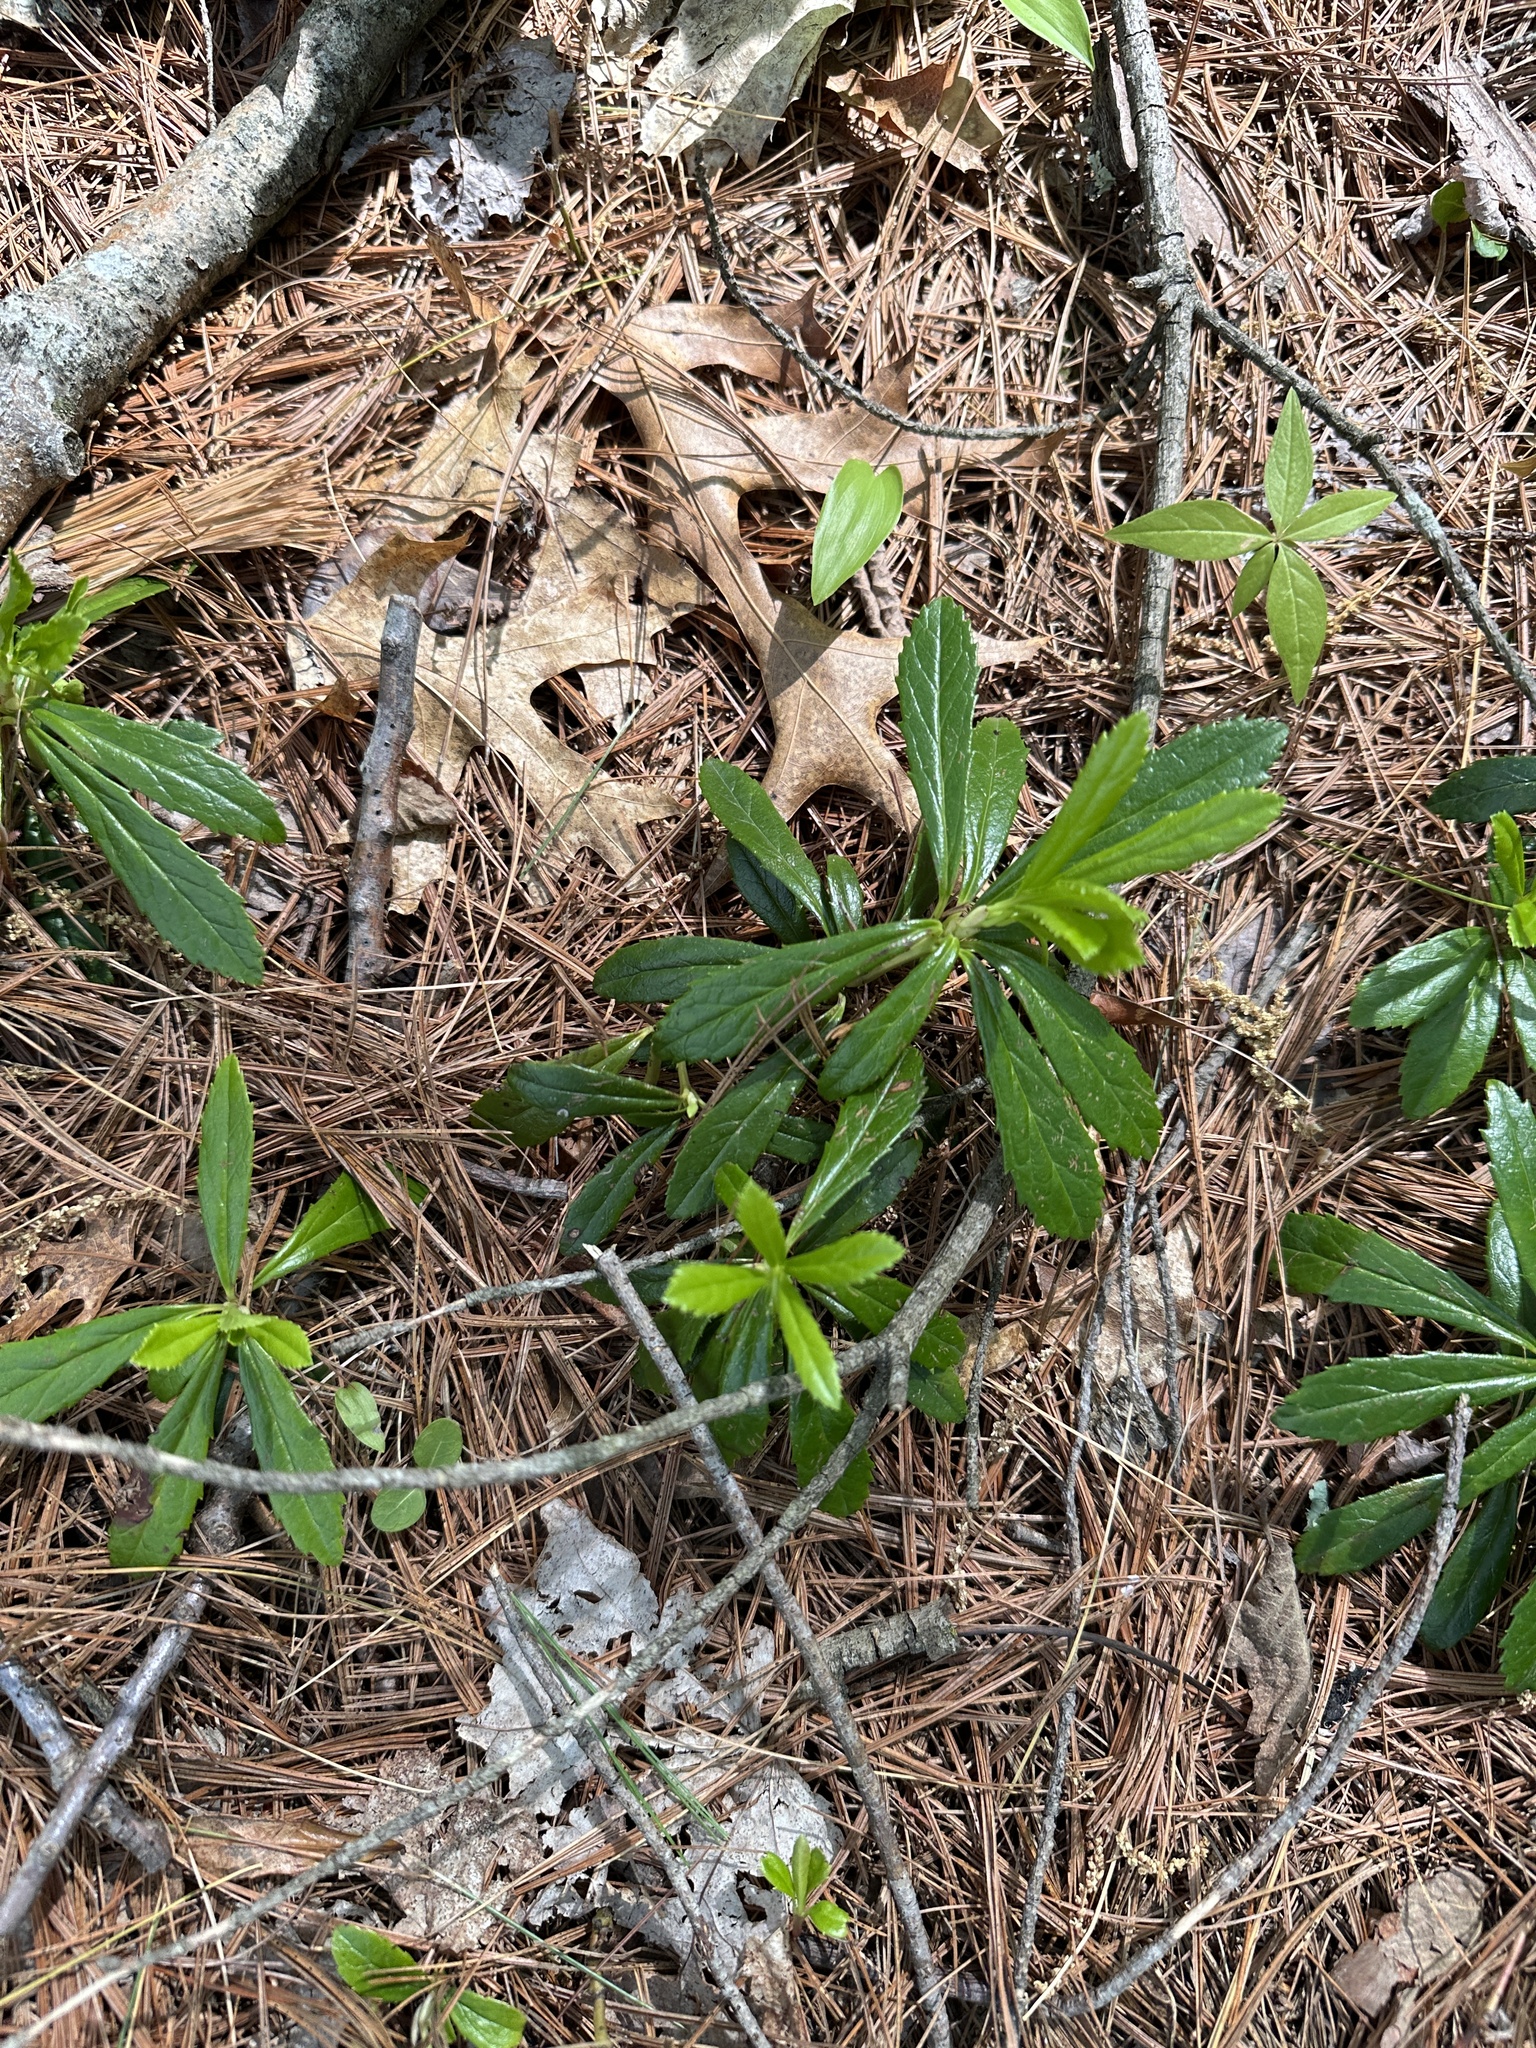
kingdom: Plantae
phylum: Tracheophyta
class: Magnoliopsida
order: Ericales
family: Ericaceae
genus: Chimaphila
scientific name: Chimaphila umbellata
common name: Pipsissewa
